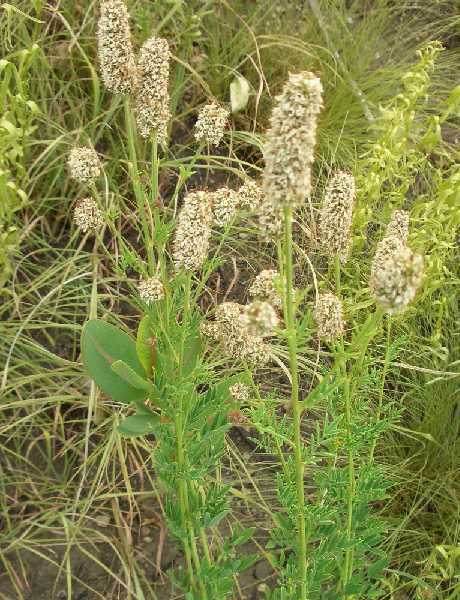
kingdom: Plantae
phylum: Tracheophyta
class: Magnoliopsida
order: Fabales
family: Fabaceae
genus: Dalea
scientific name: Dalea candida
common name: White prairie-clover
